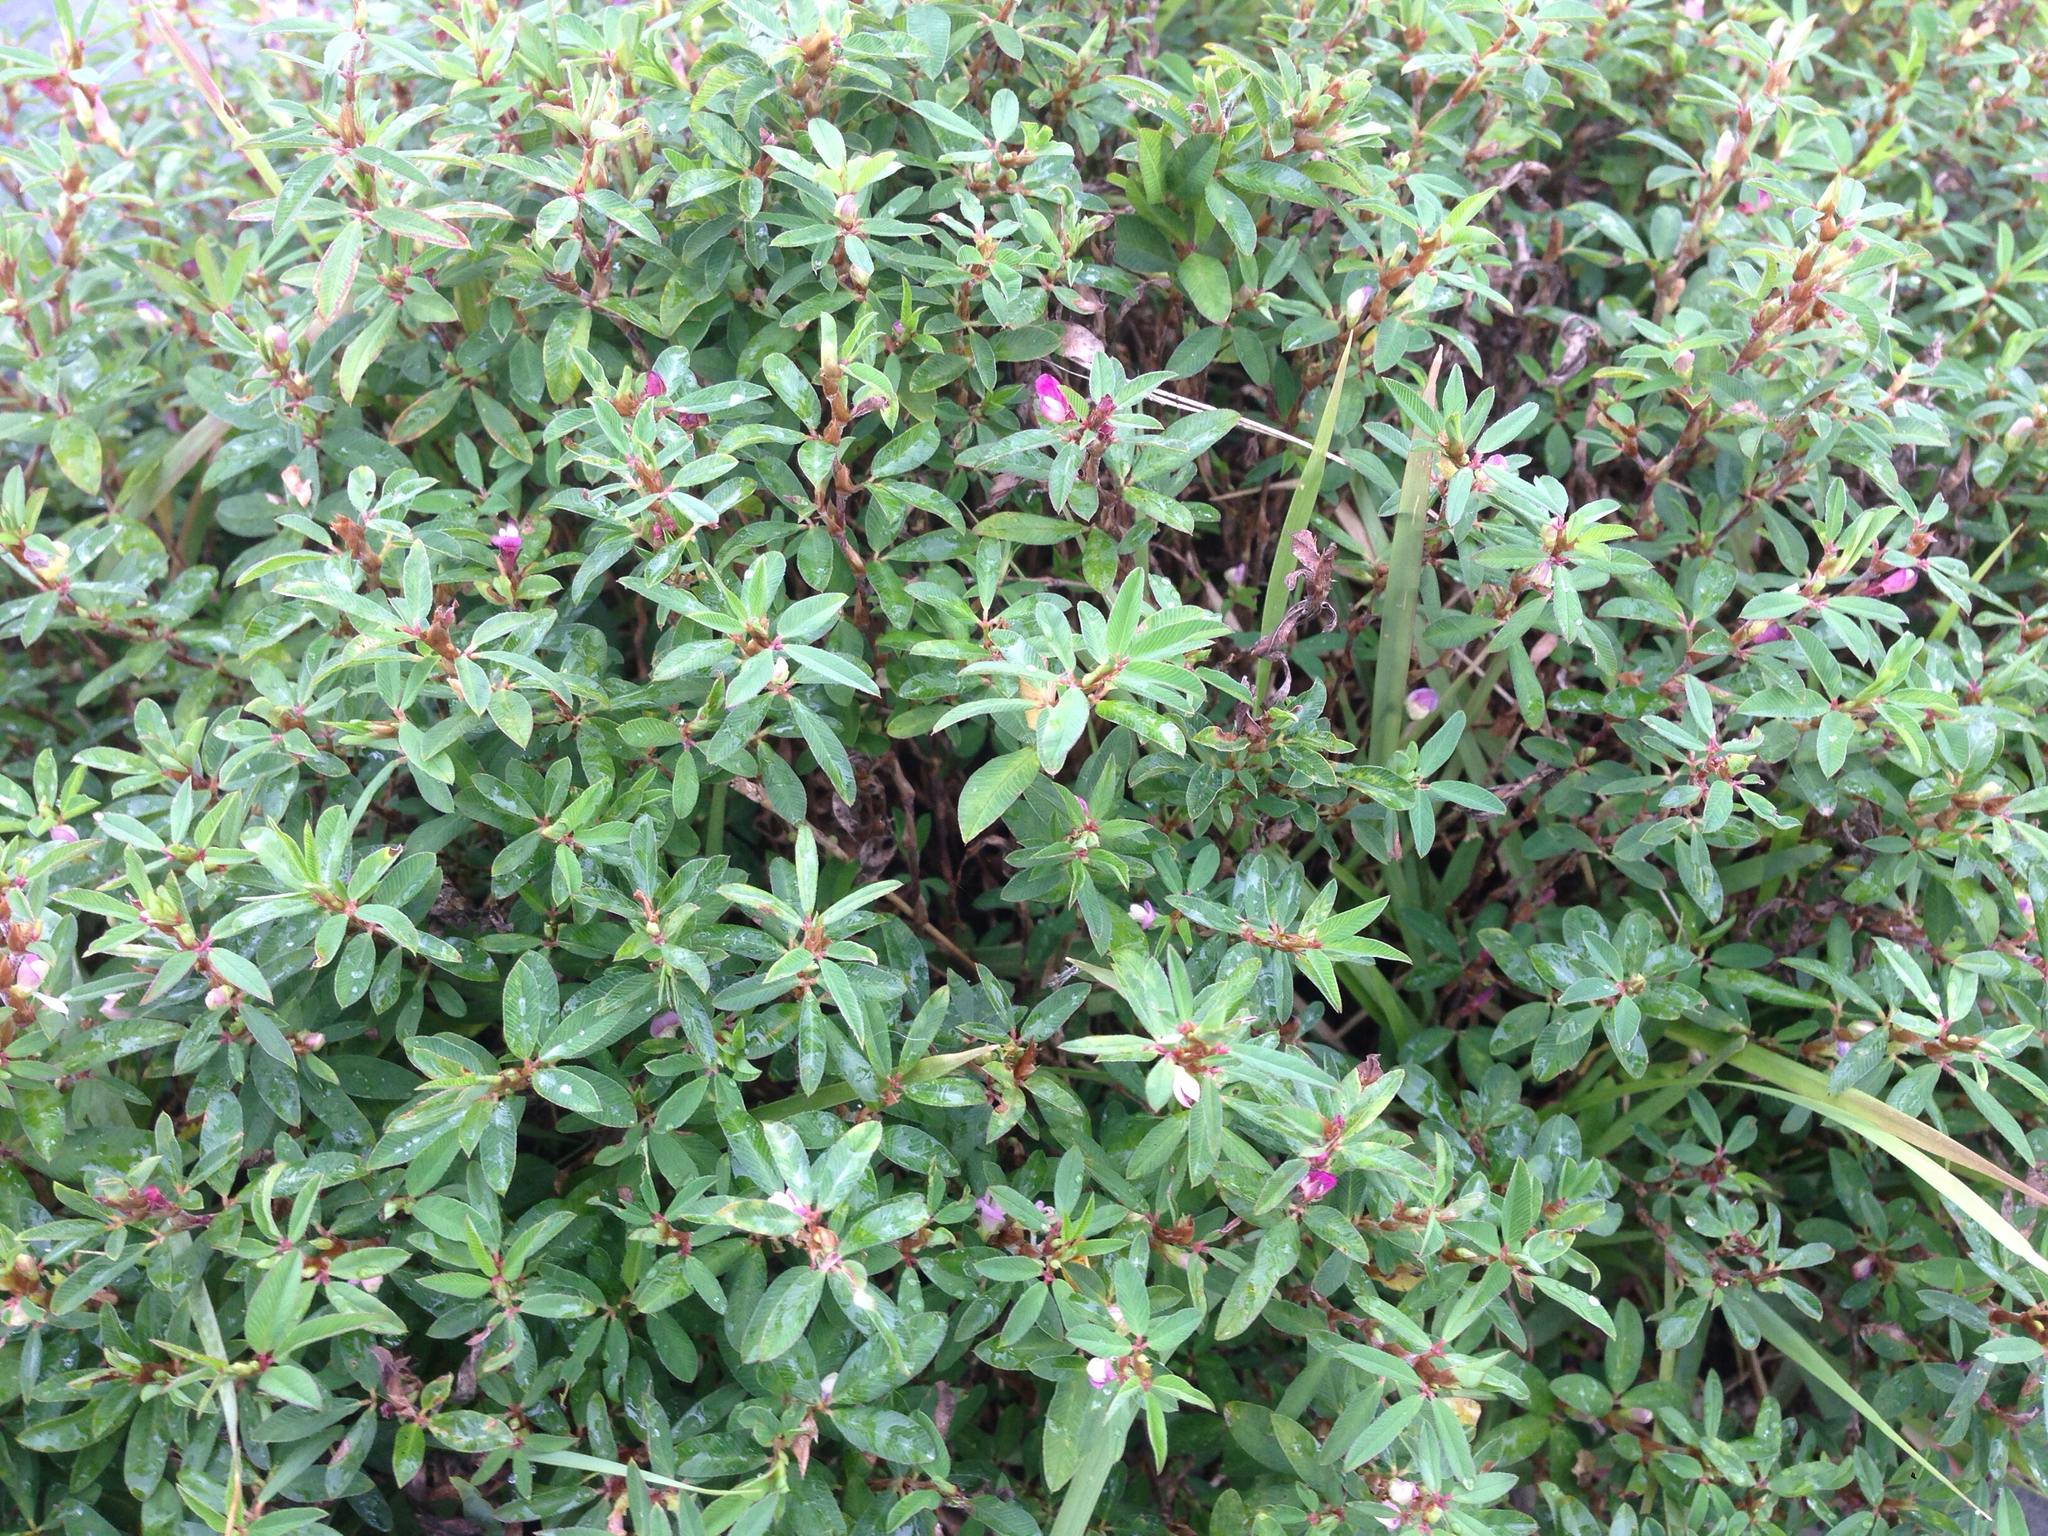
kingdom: Plantae
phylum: Tracheophyta
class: Magnoliopsida
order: Fabales
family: Fabaceae
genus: Kummerowia
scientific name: Kummerowia striata
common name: Japanese clover
